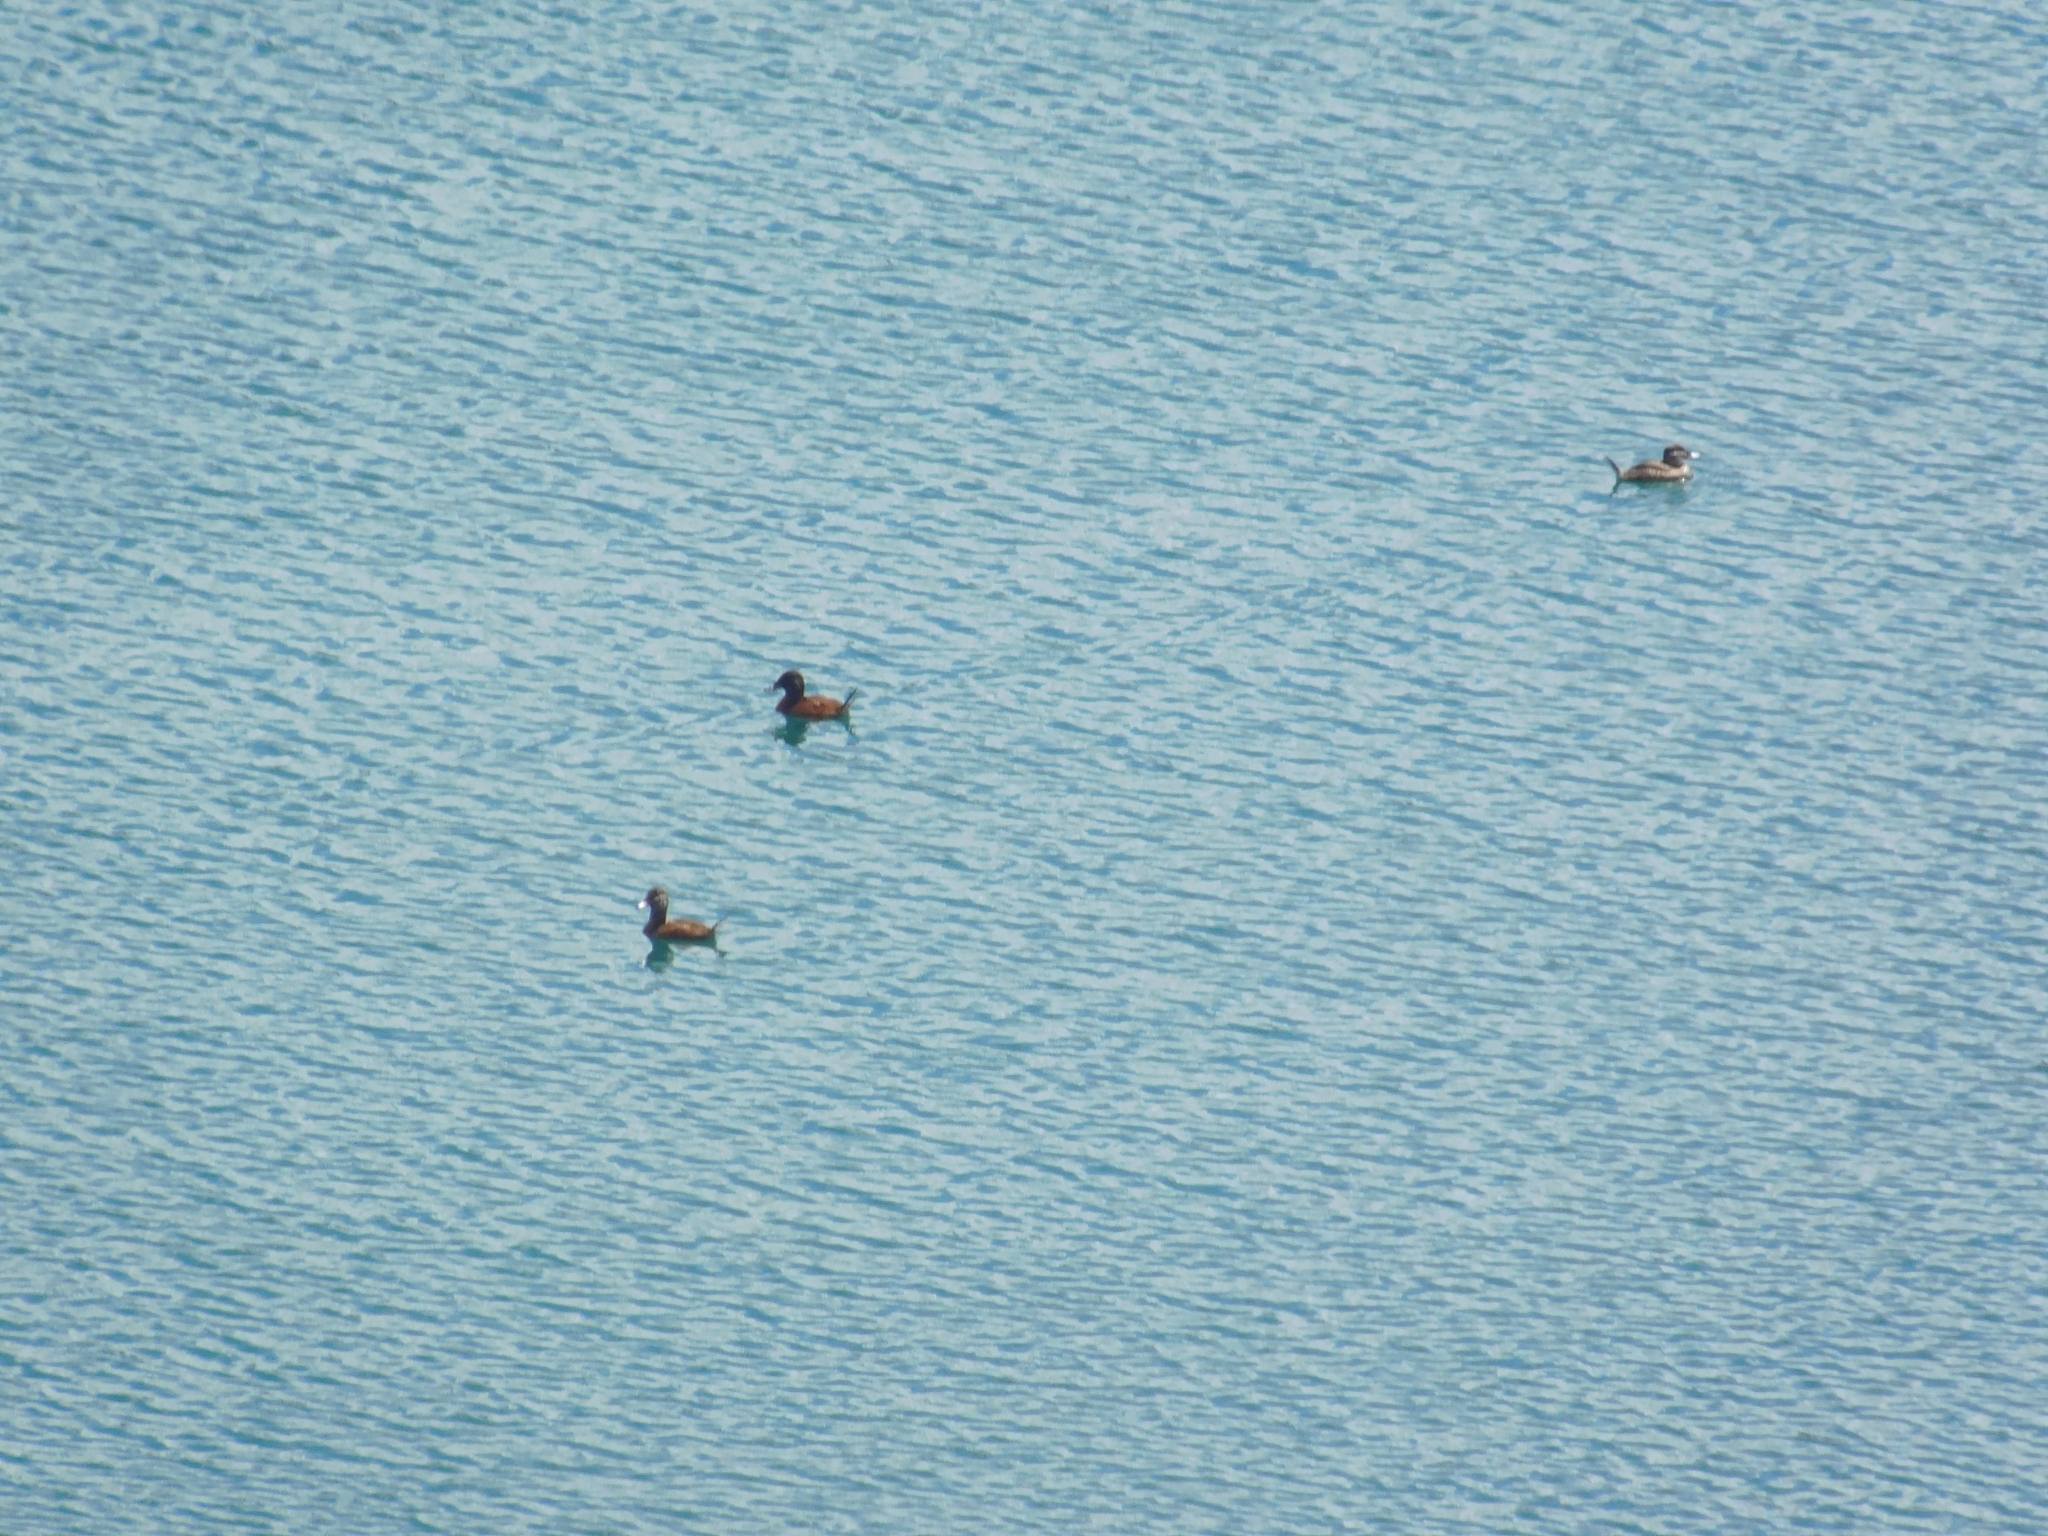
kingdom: Animalia
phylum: Chordata
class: Aves
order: Anseriformes
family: Anatidae
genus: Oxyura
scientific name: Oxyura vittata
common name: Lake duck
